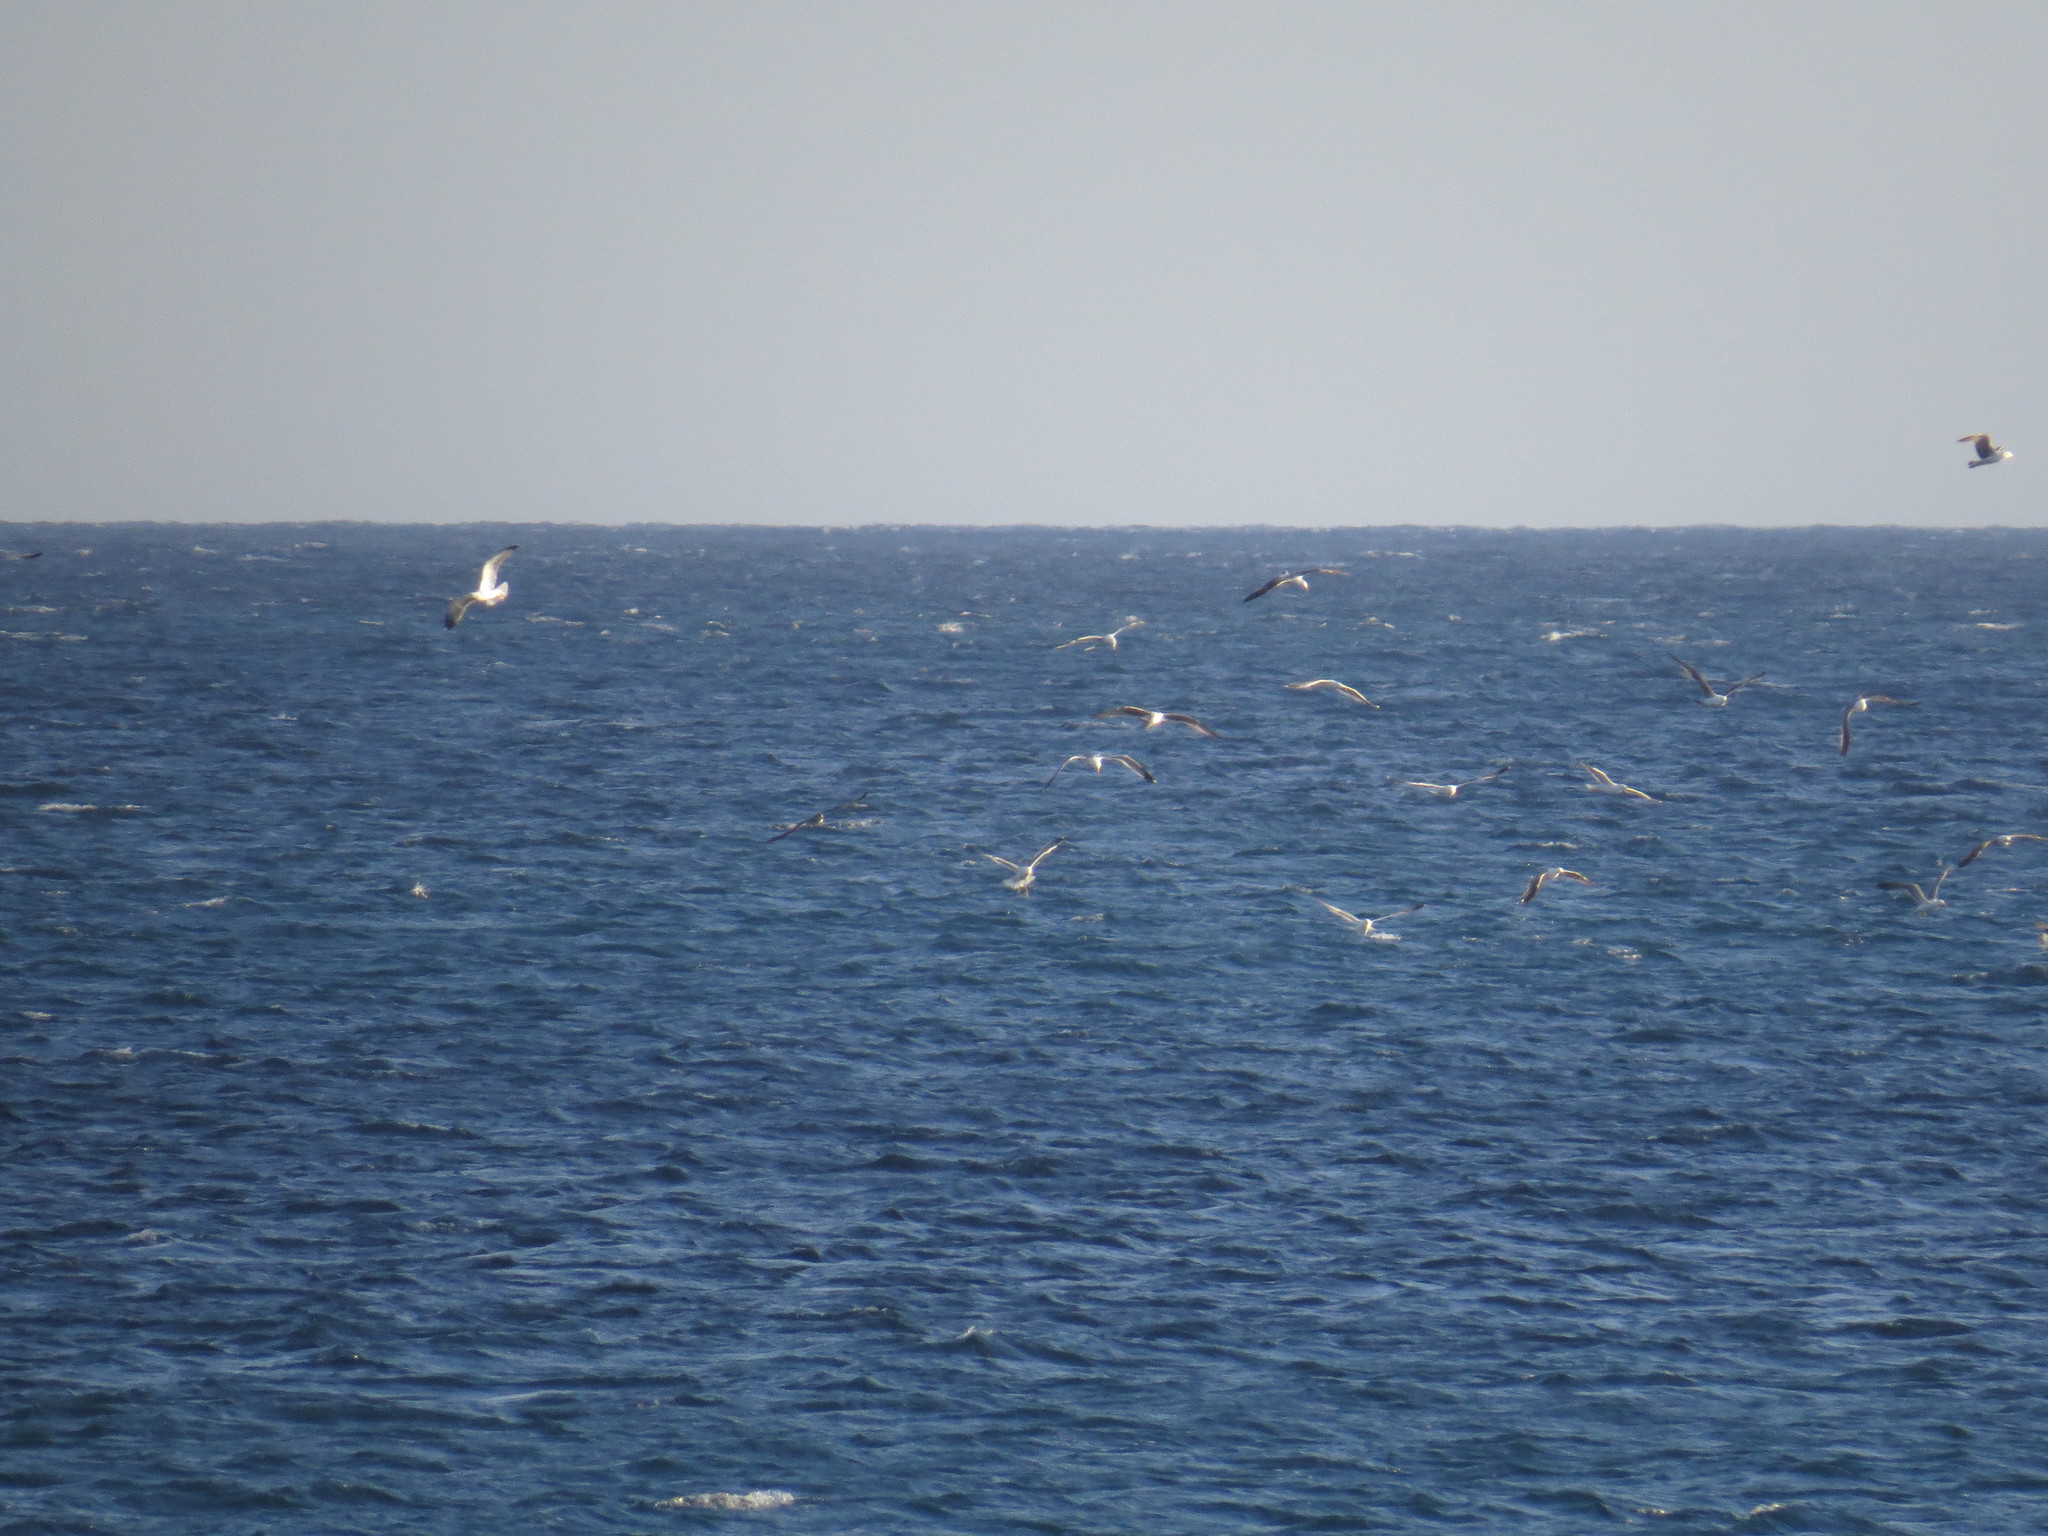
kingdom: Animalia
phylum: Chordata
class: Aves
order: Charadriiformes
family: Laridae
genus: Larus
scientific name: Larus michahellis
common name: Yellow-legged gull
